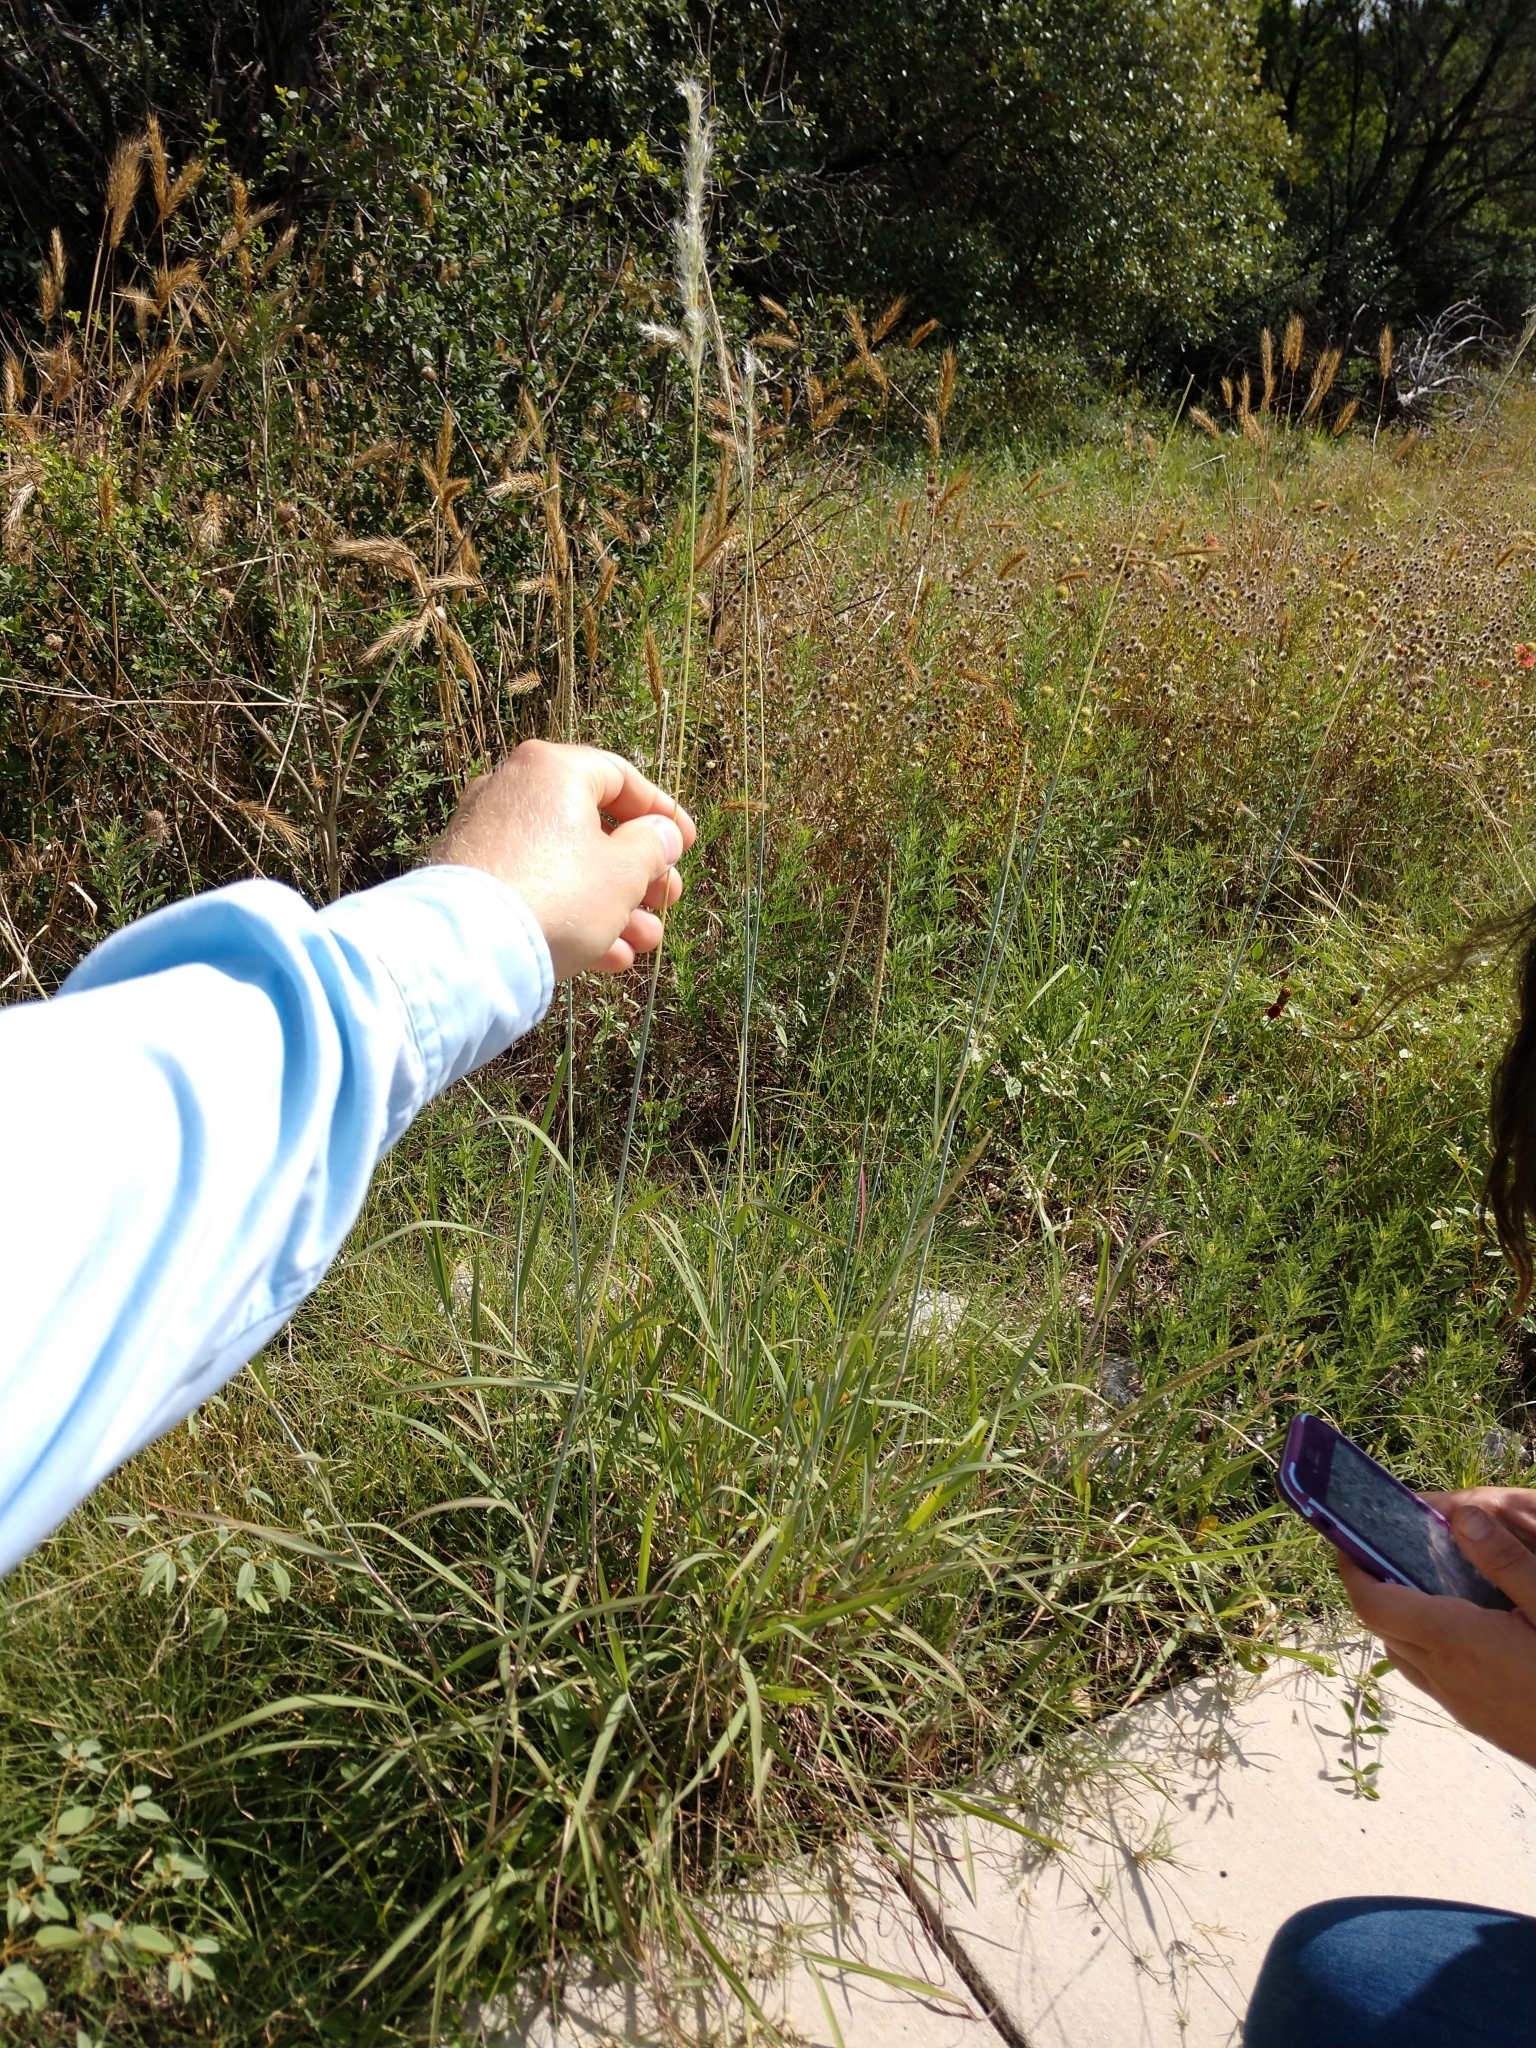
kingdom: Plantae
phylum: Tracheophyta
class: Liliopsida
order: Poales
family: Poaceae
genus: Bothriochloa
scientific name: Bothriochloa barbinodis
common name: Cane bluestem
